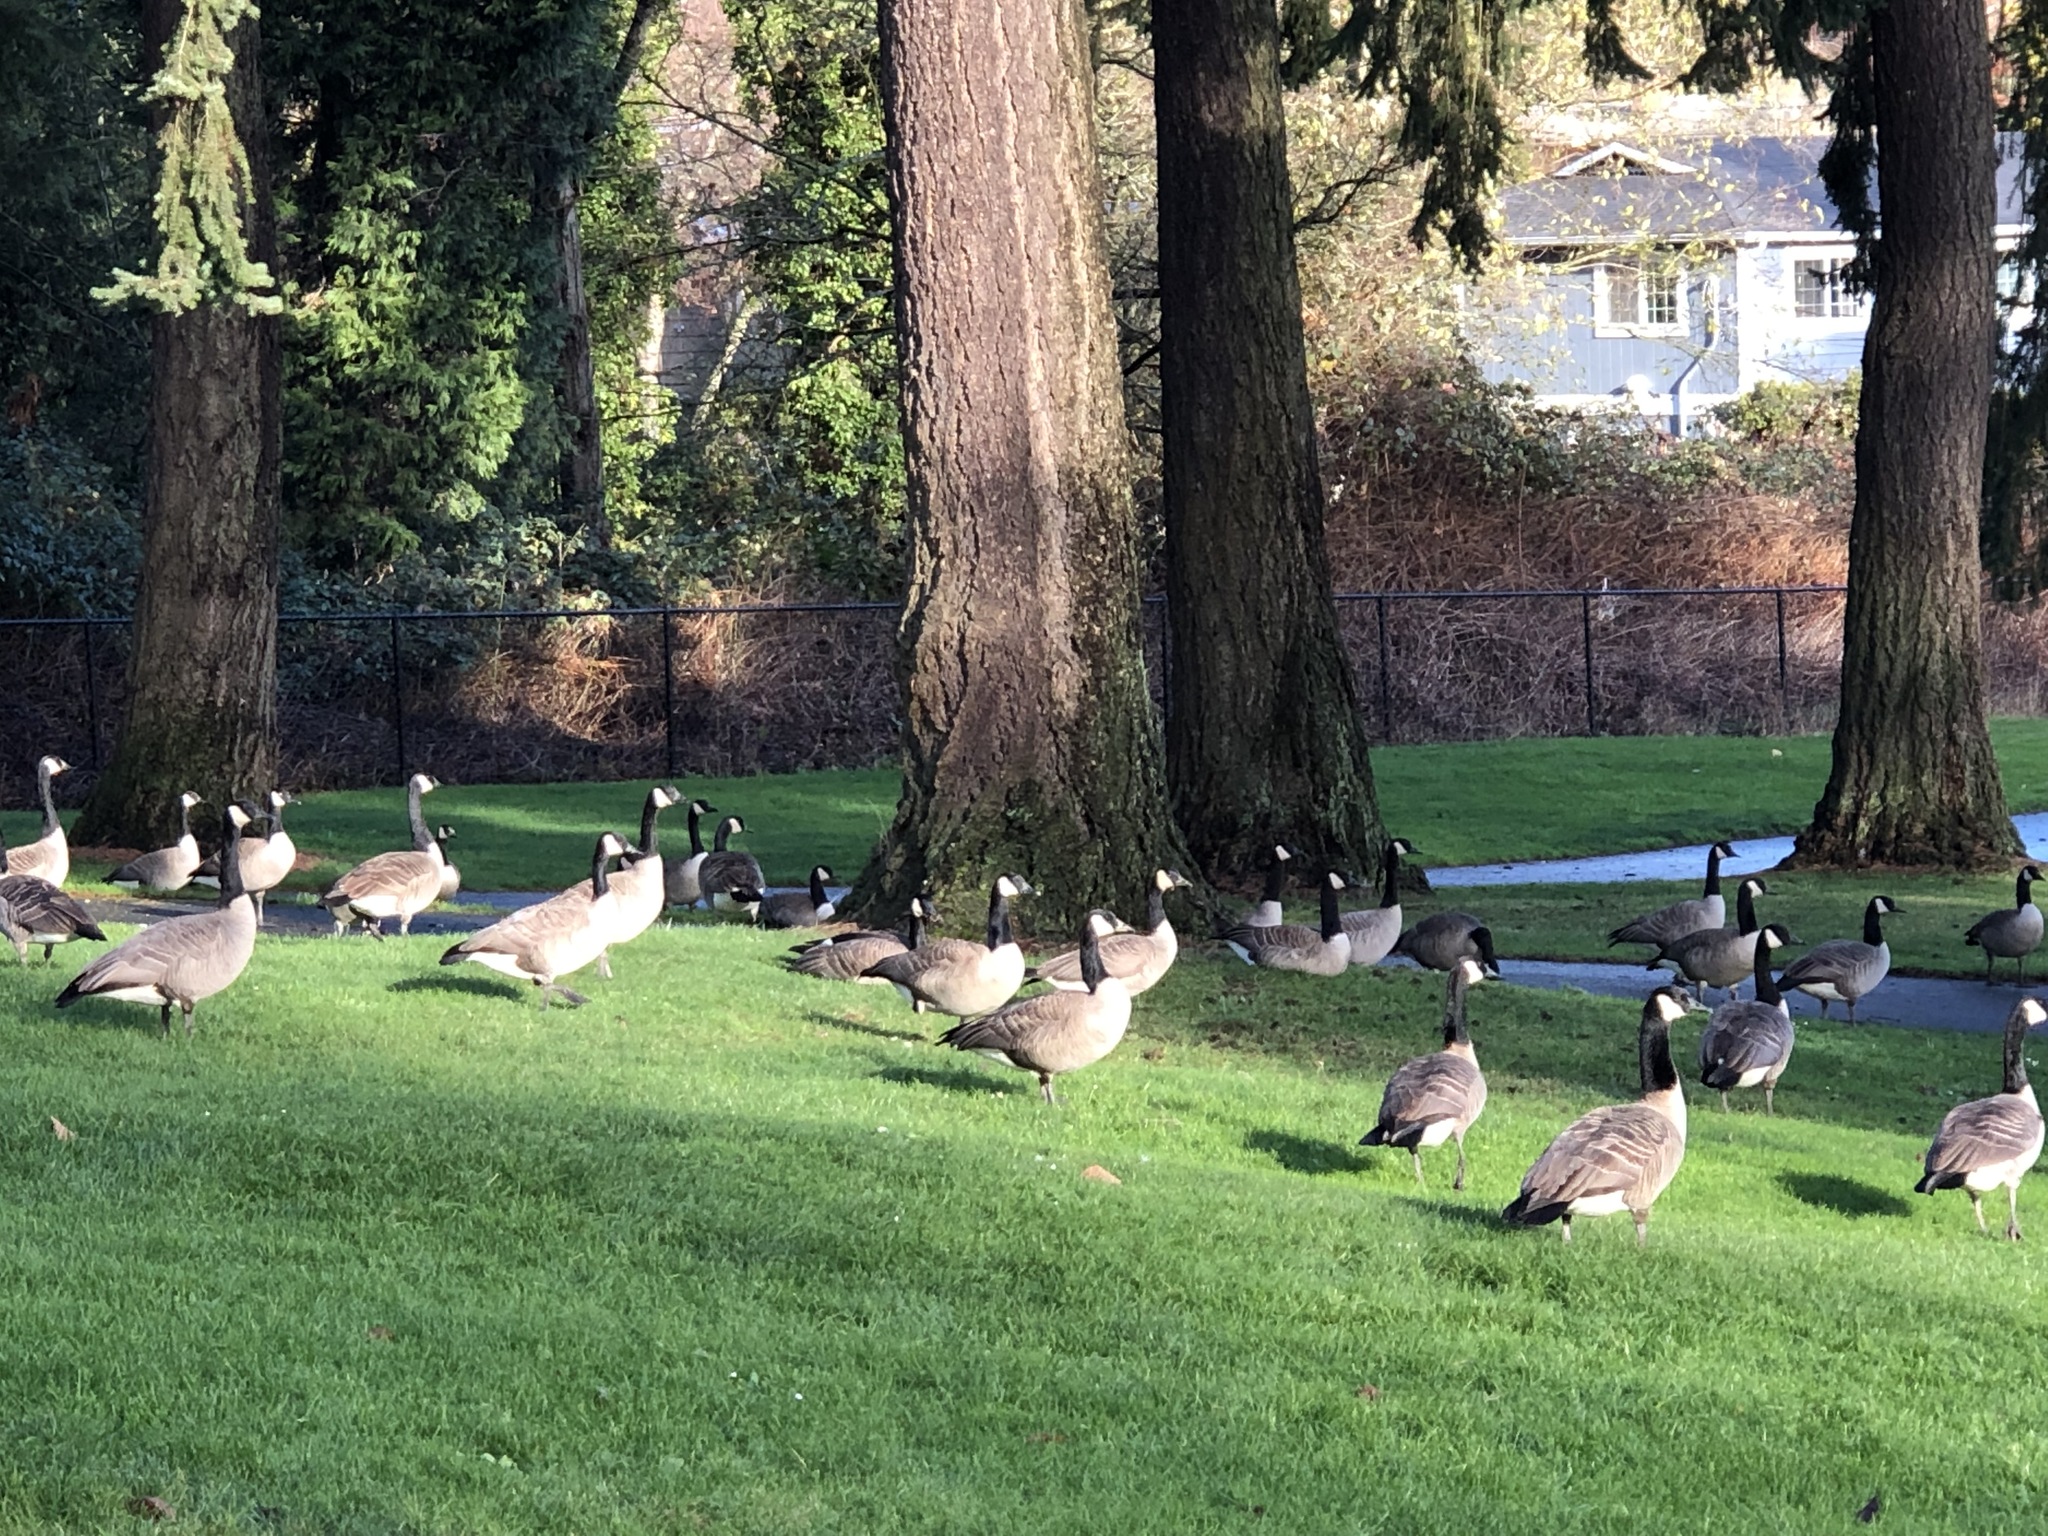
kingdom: Animalia
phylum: Chordata
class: Aves
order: Anseriformes
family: Anatidae
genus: Branta
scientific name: Branta canadensis
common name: Canada goose
